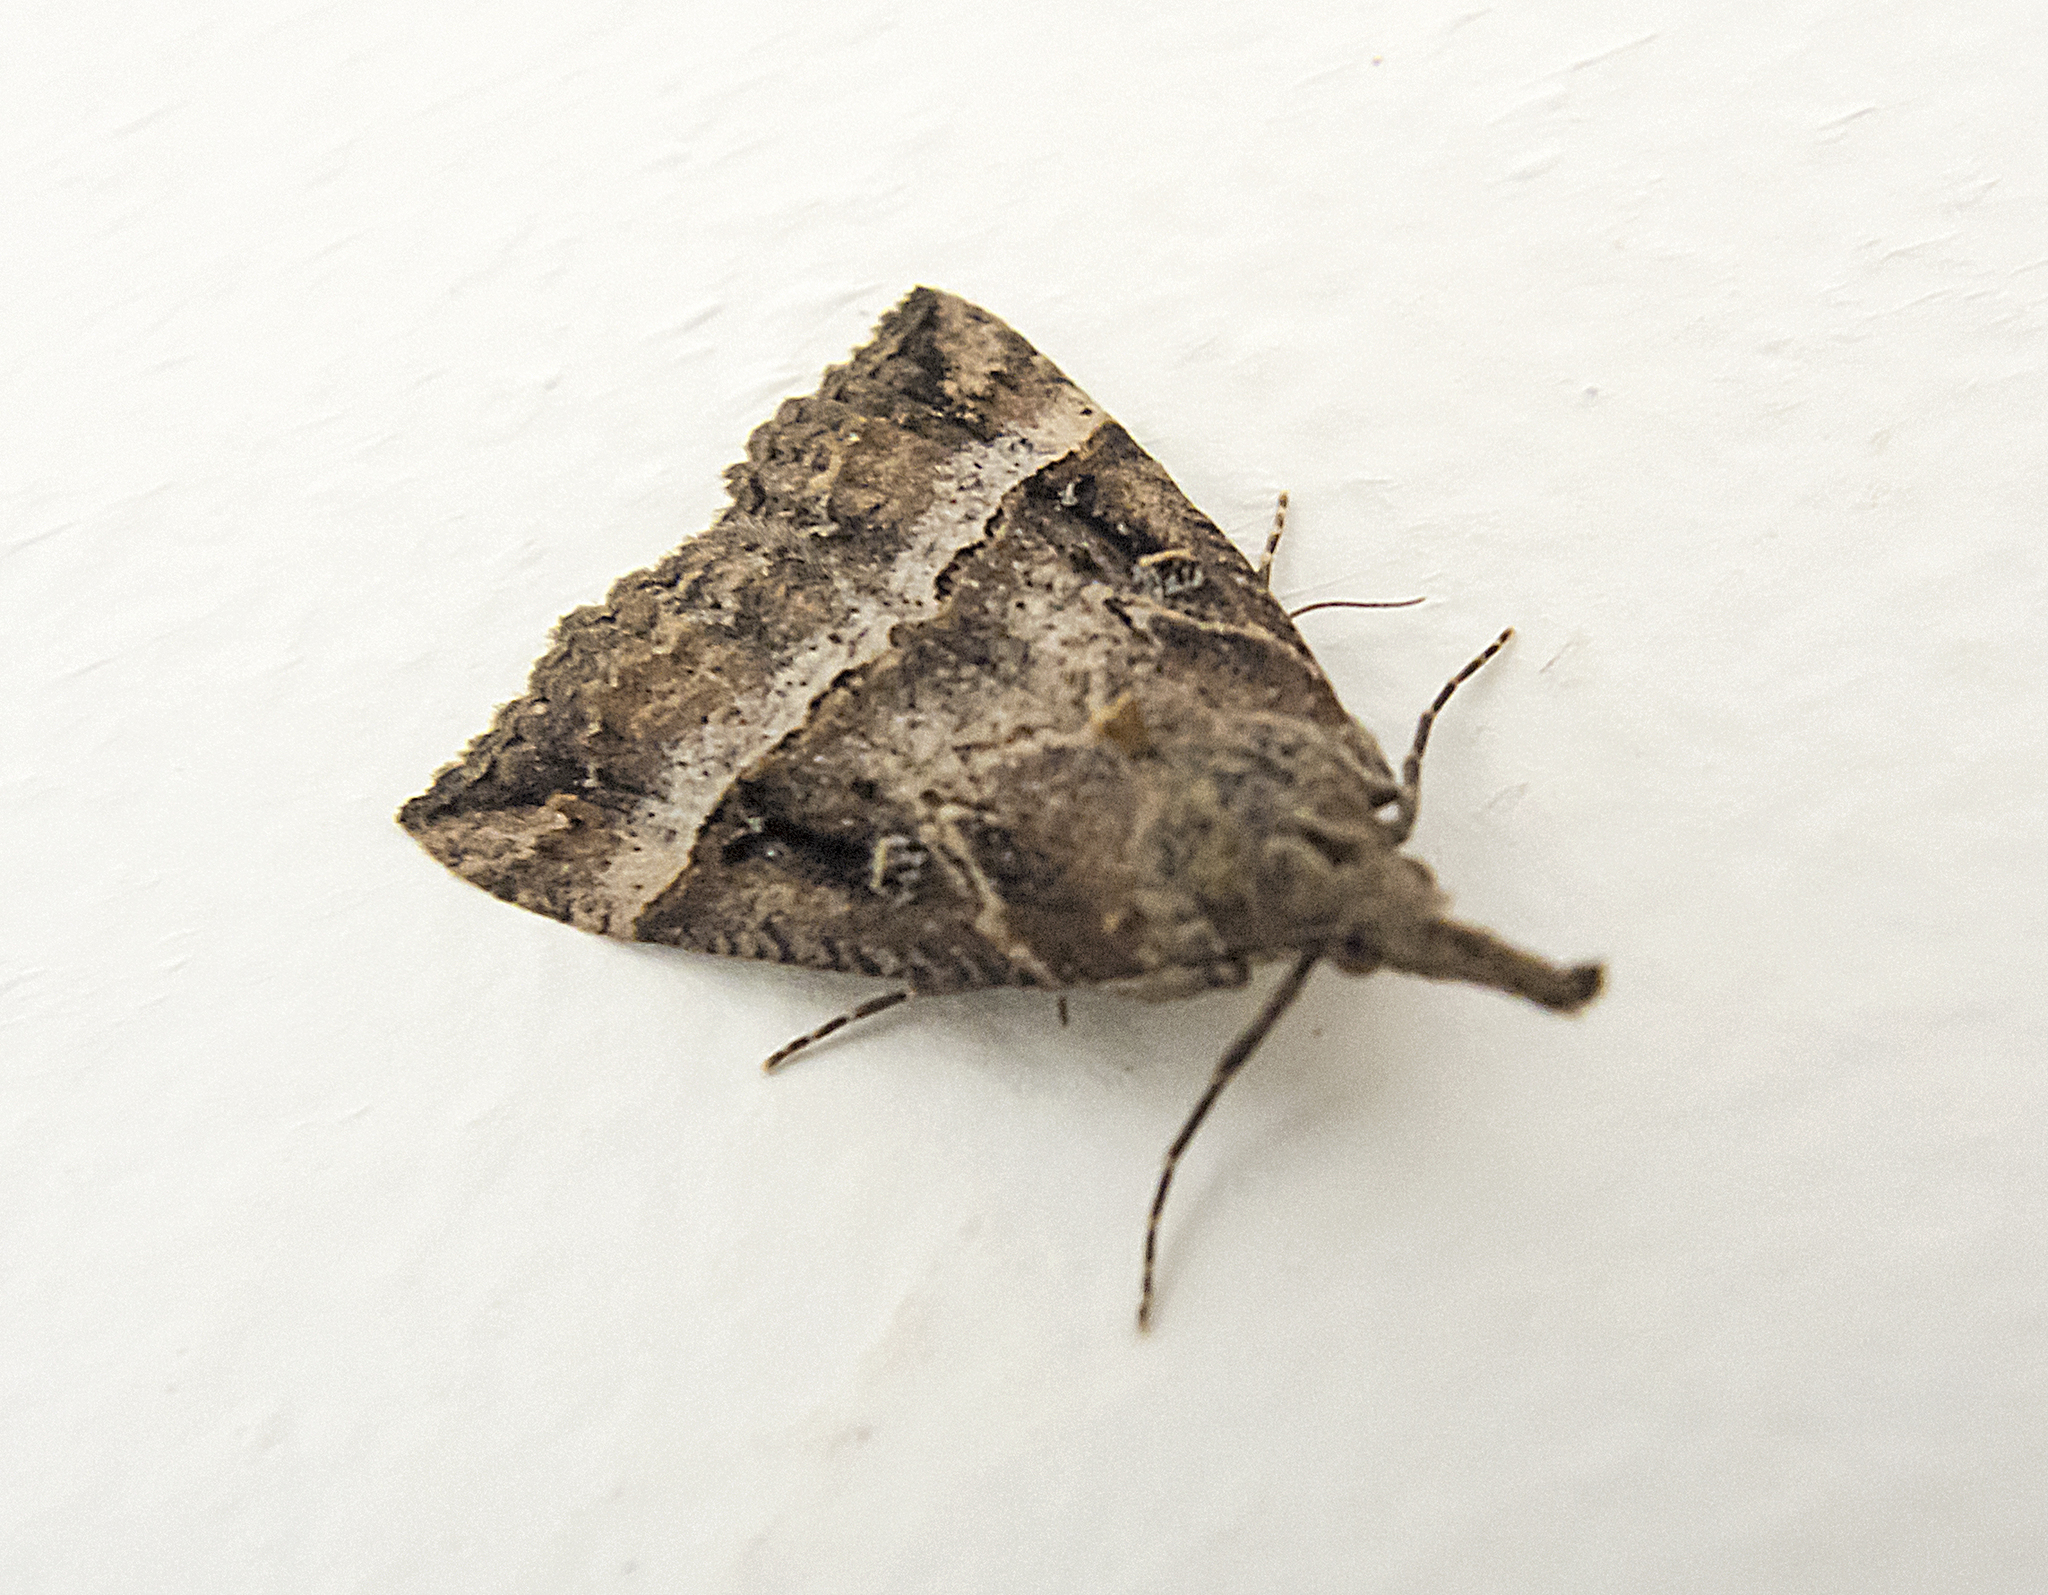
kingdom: Animalia
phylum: Arthropoda
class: Insecta
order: Lepidoptera
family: Erebidae
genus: Hypena
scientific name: Hypena rostralis
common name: Buttoned snout
